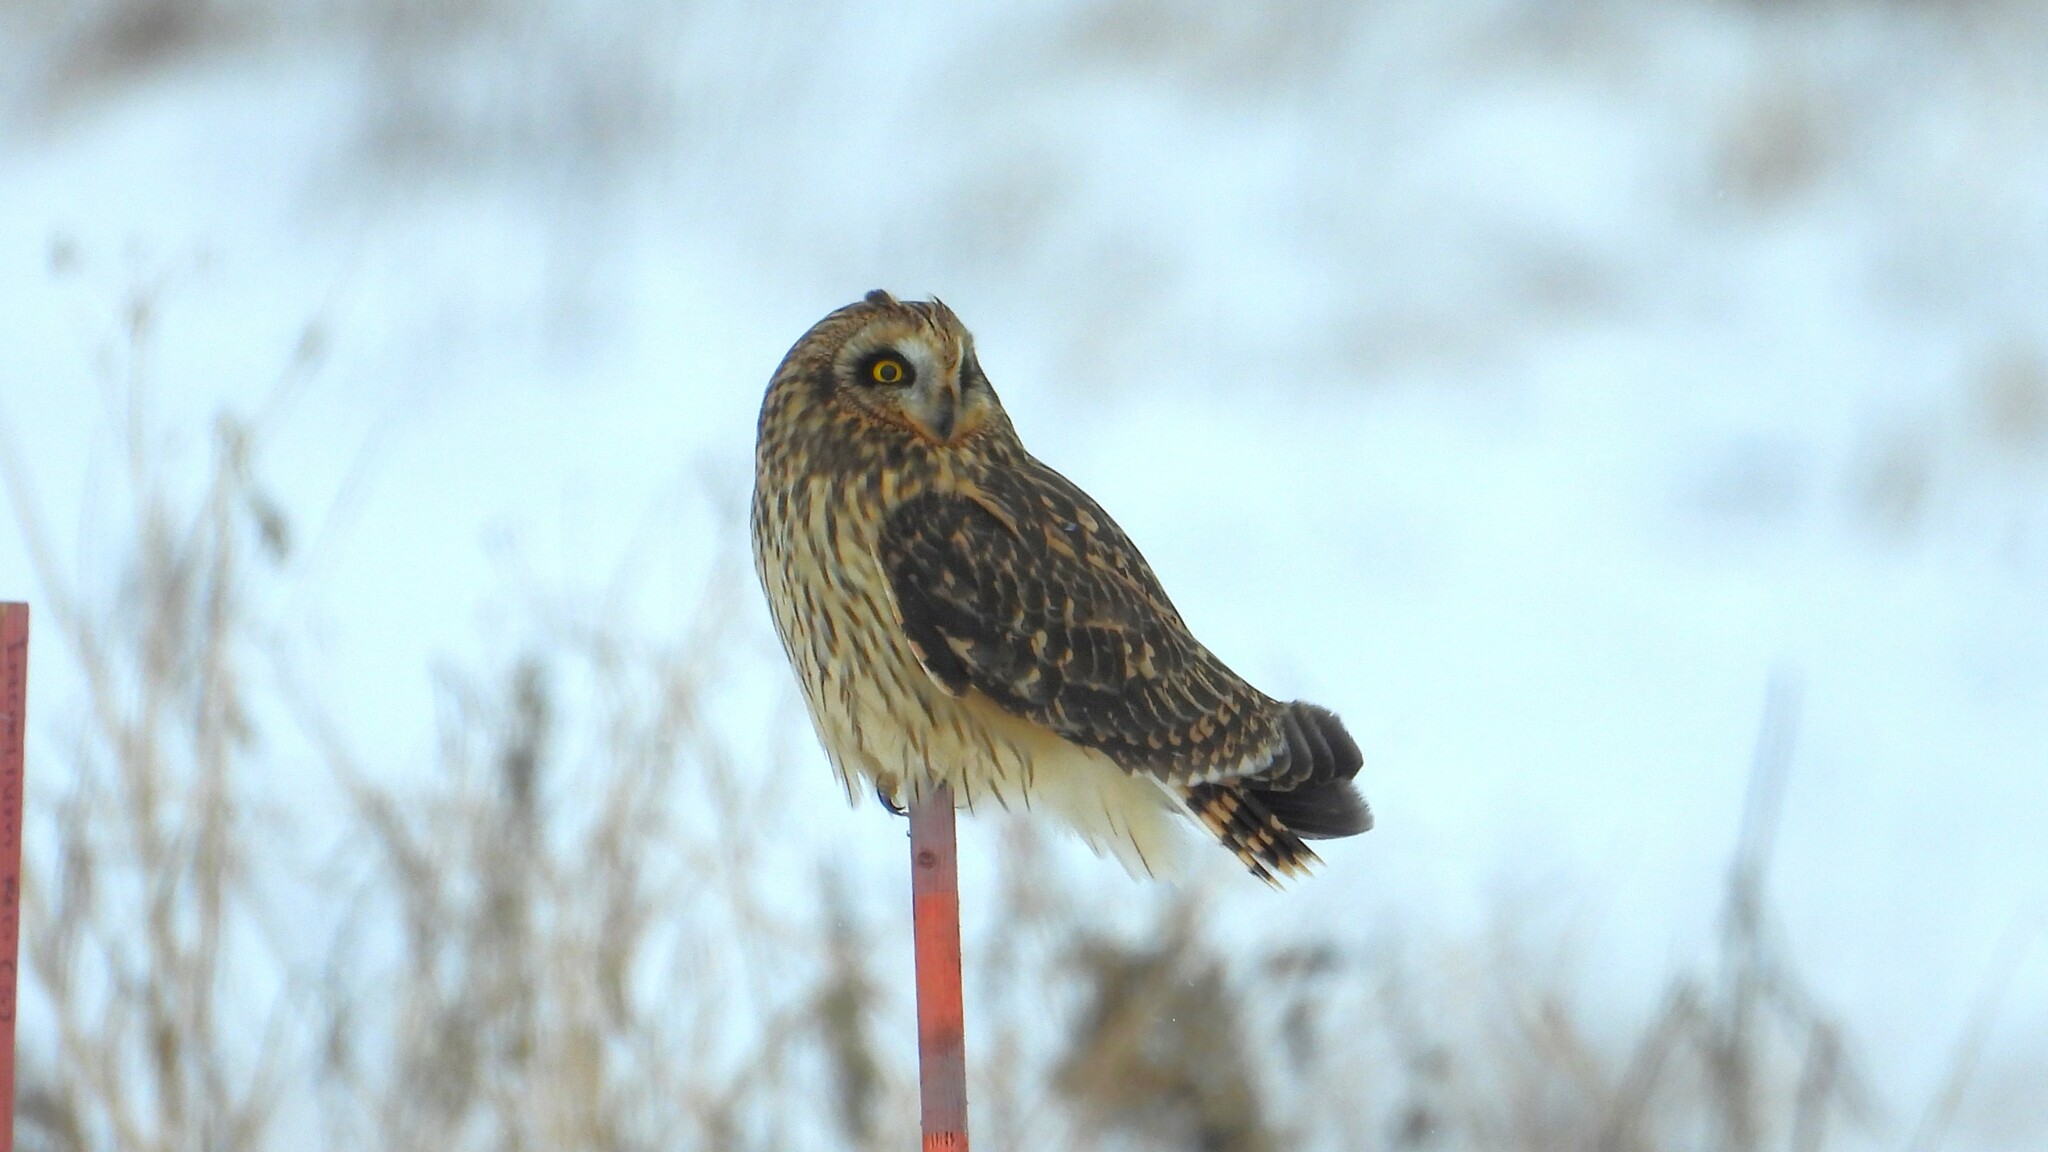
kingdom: Animalia
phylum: Chordata
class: Aves
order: Strigiformes
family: Strigidae
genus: Asio
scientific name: Asio flammeus
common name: Short-eared owl
